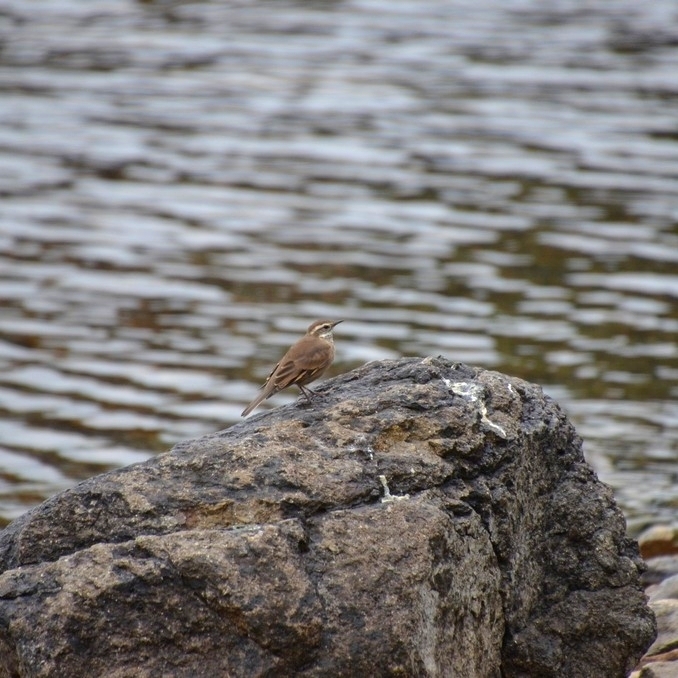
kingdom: Animalia
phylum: Chordata
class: Aves
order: Passeriformes
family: Furnariidae
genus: Cinclodes
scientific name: Cinclodes patagonicus
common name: Dark-bellied cinclodes
